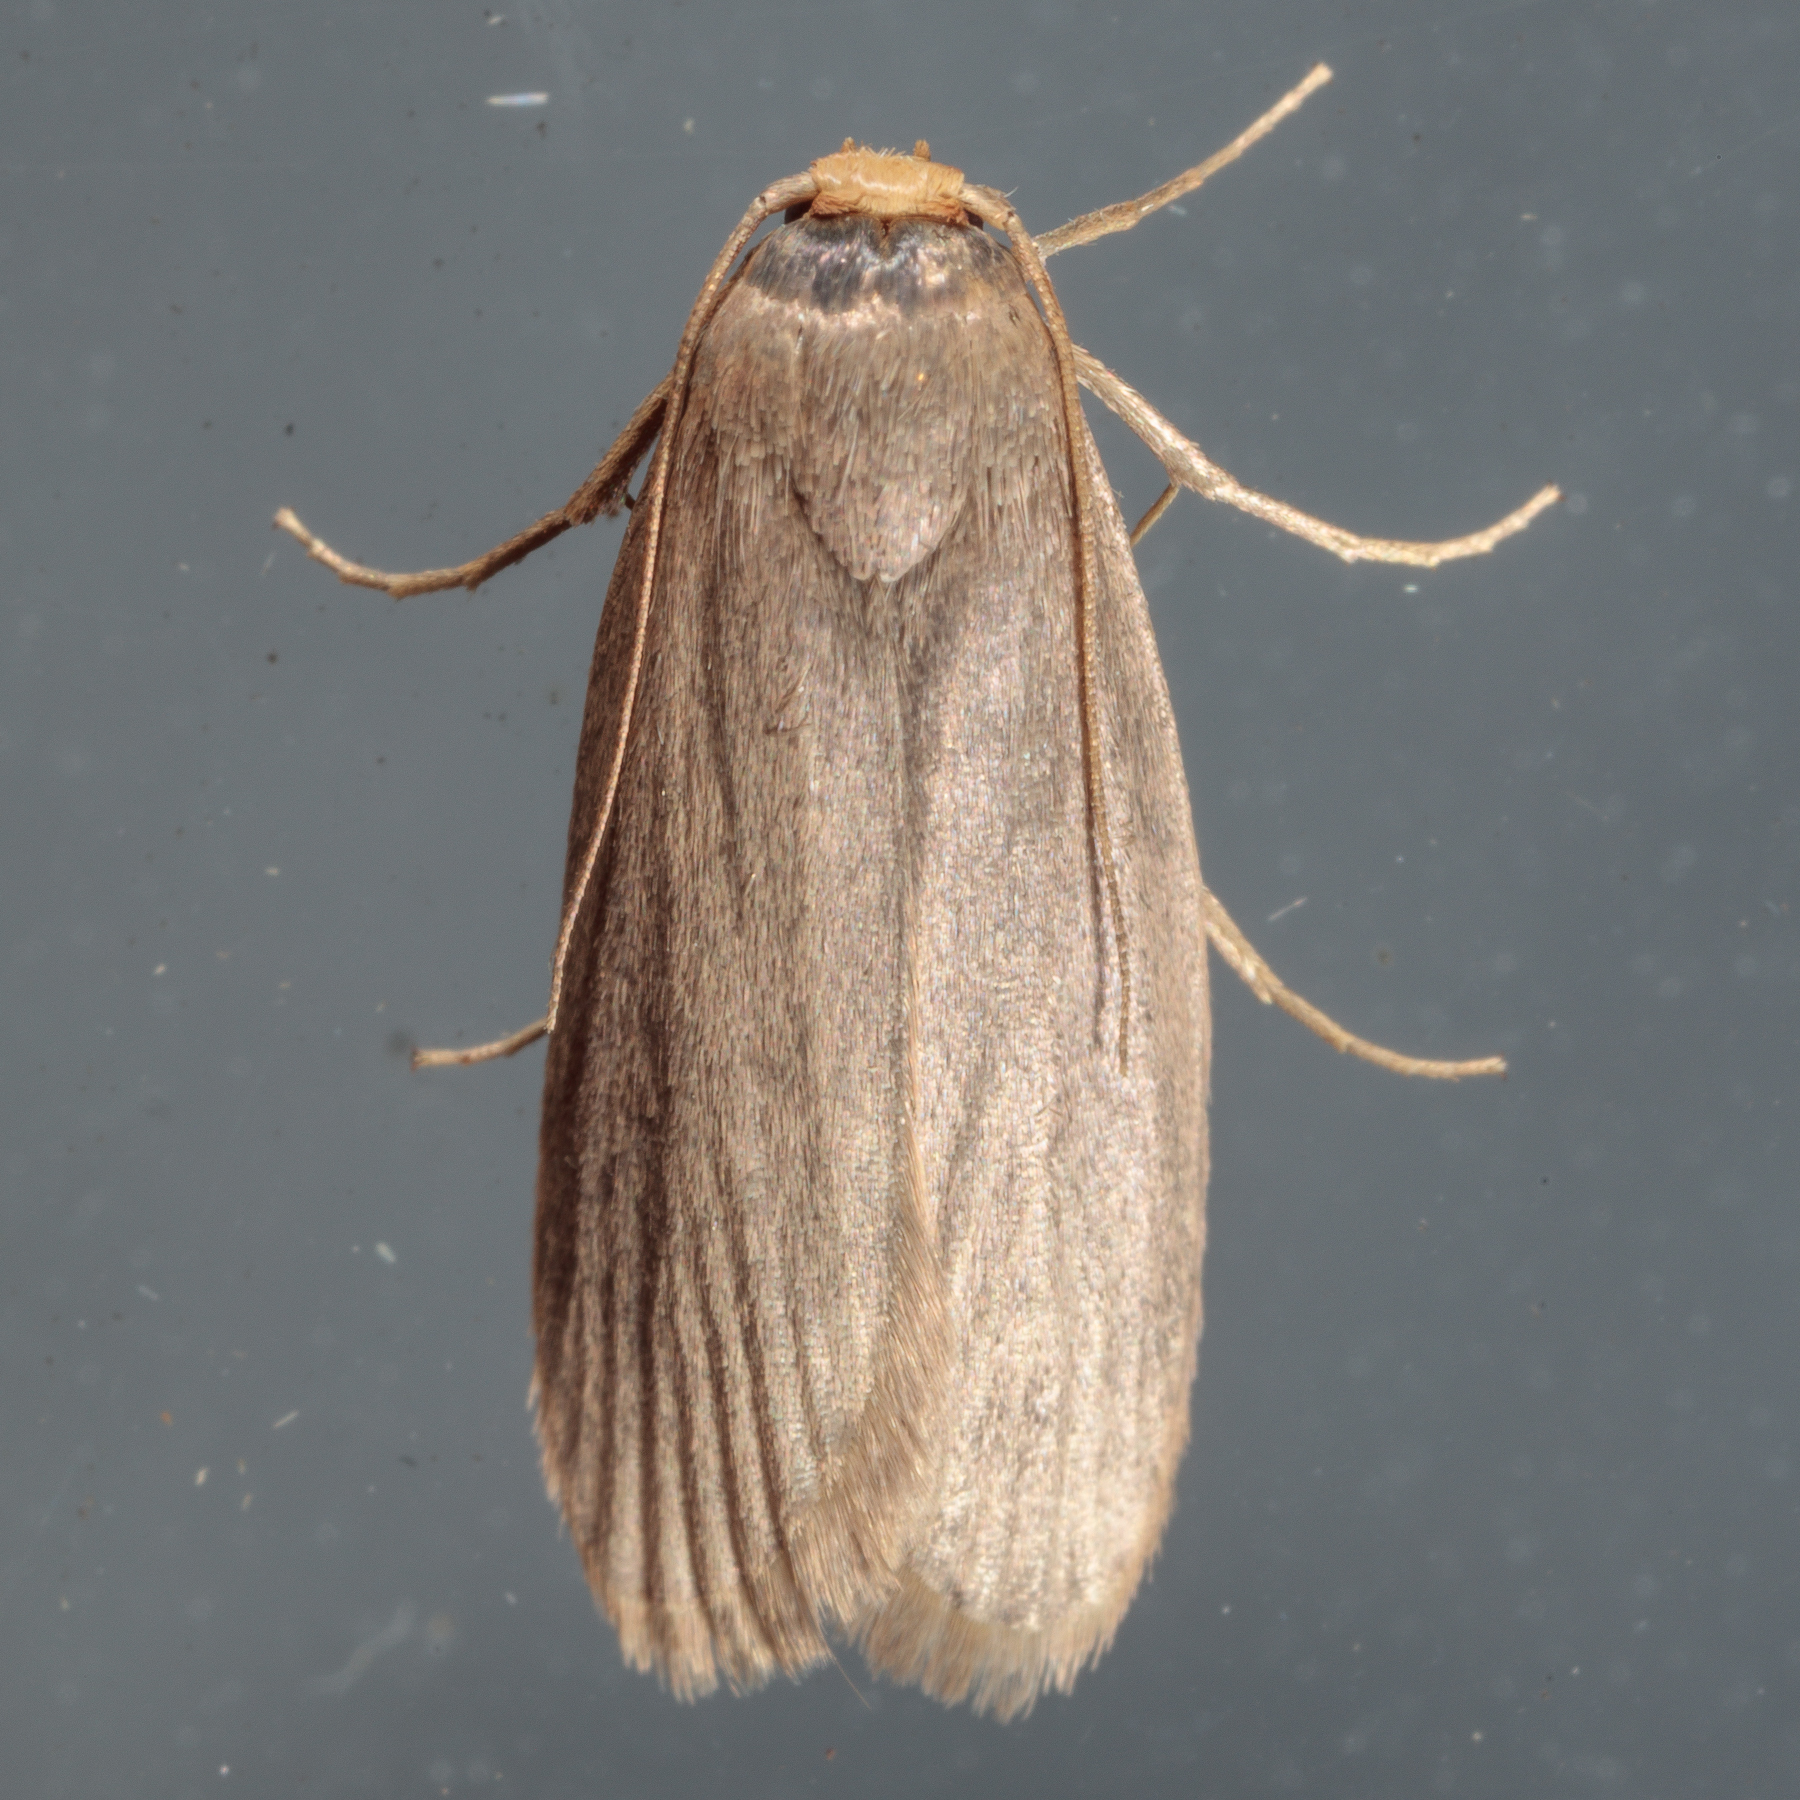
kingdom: Animalia
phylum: Arthropoda
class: Insecta
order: Lepidoptera
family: Pyralidae
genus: Achroia
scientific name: Achroia grisella
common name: Lesser wax moth
